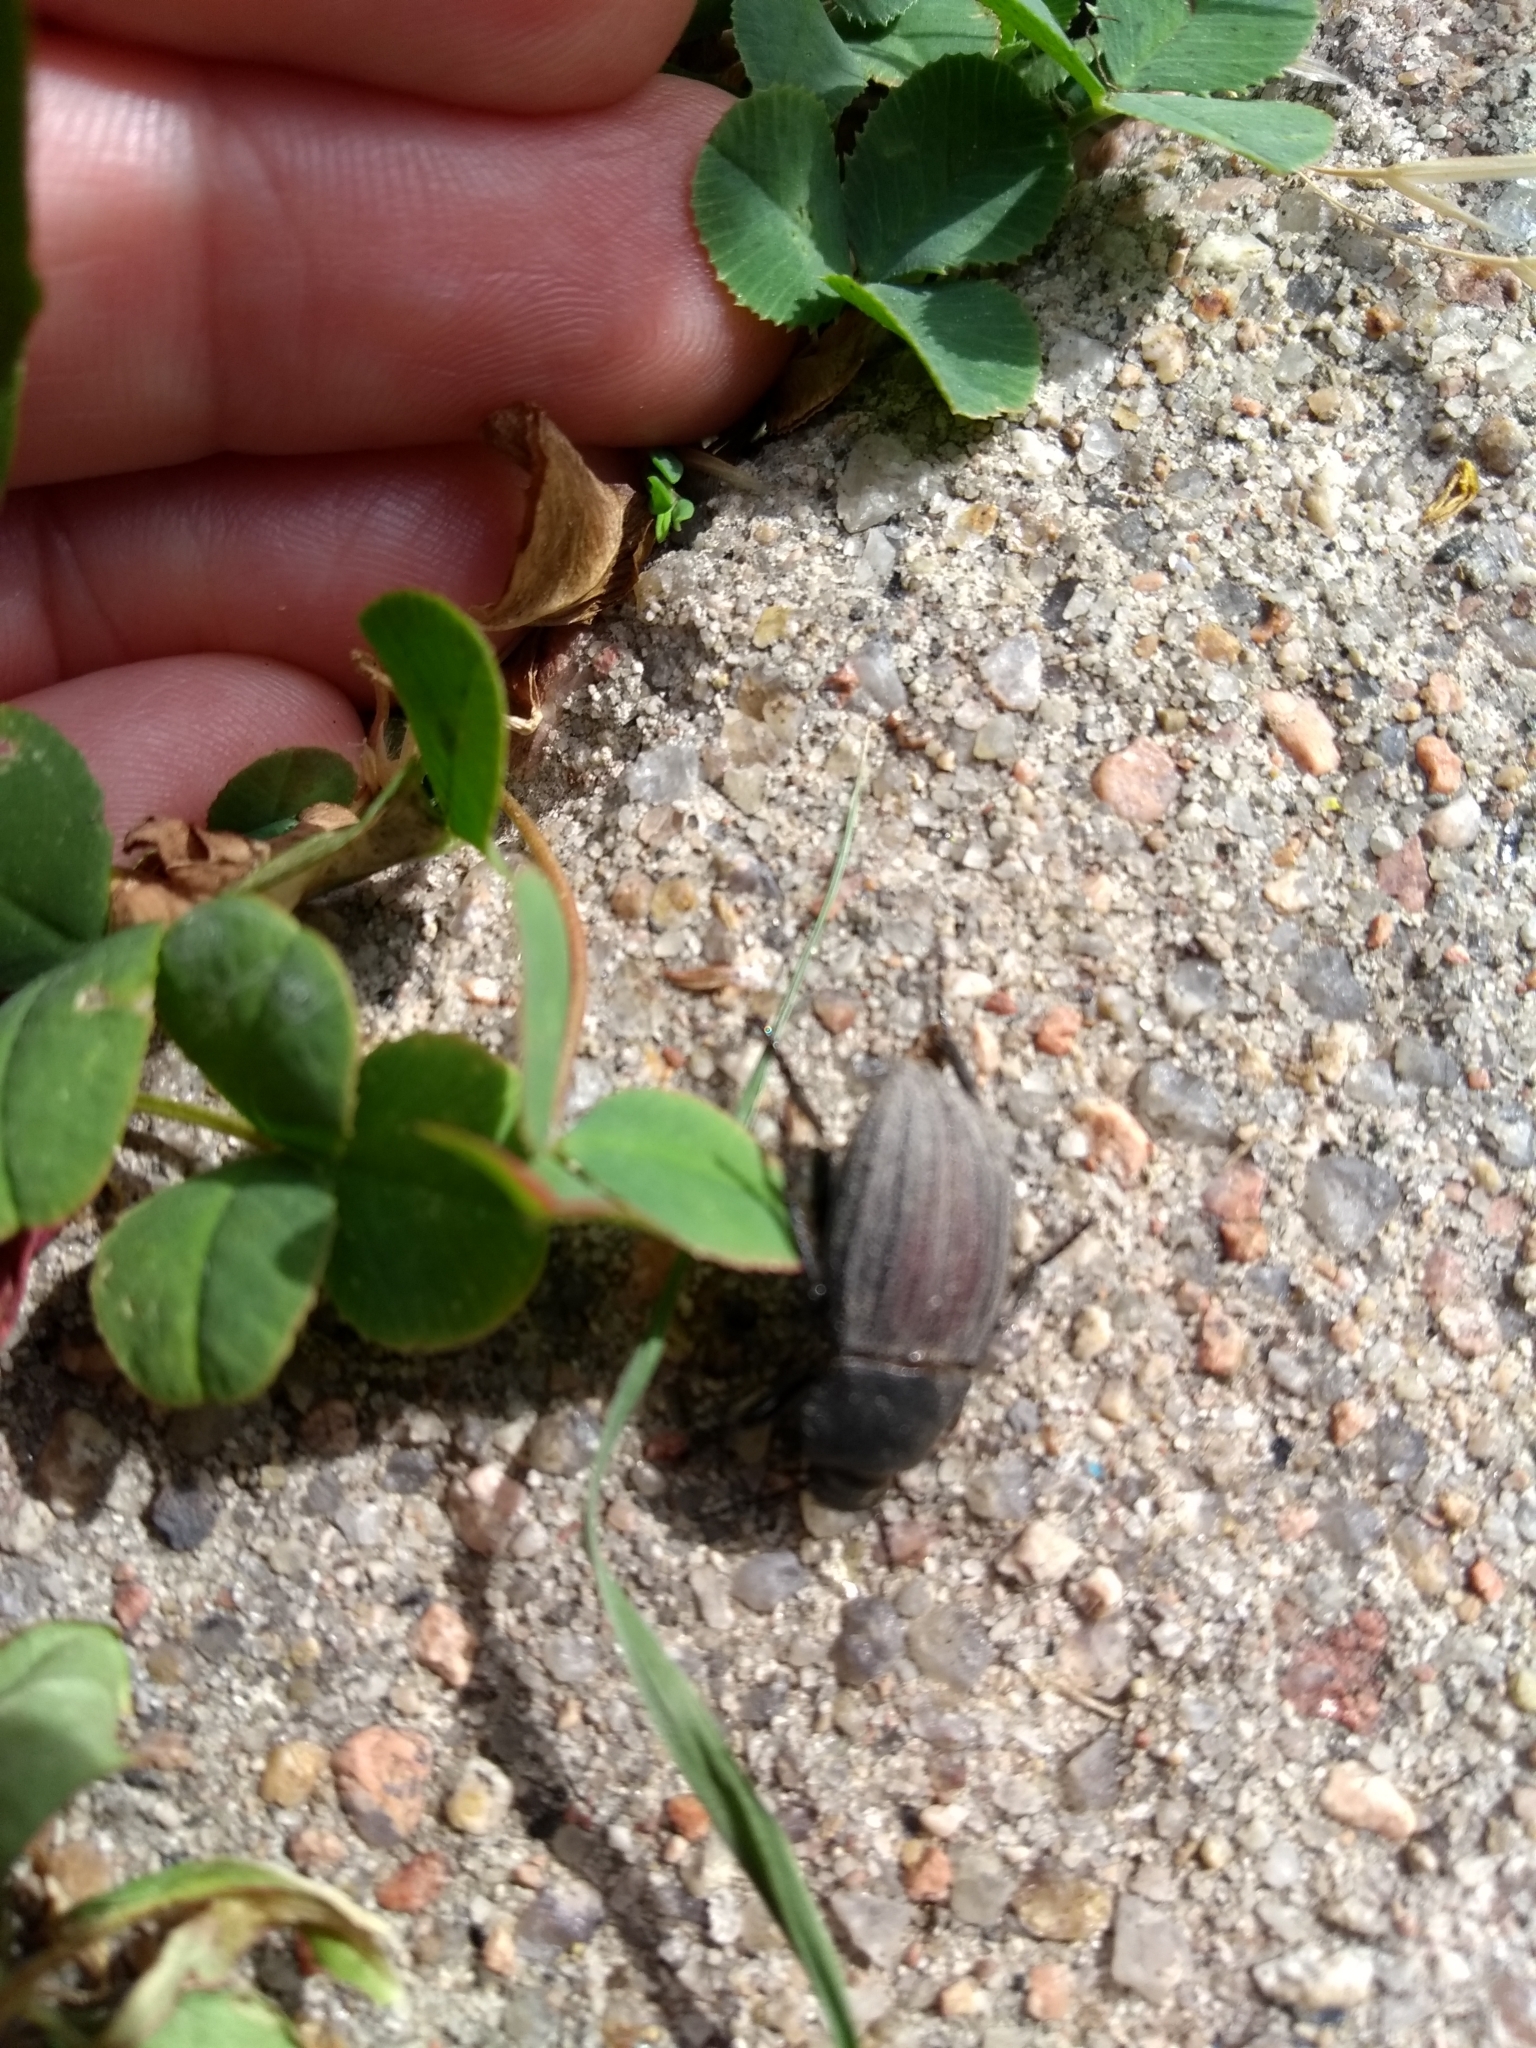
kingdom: Animalia
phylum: Arthropoda
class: Insecta
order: Coleoptera
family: Tenebrionidae
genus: Eleodes
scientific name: Eleodes tricostata
